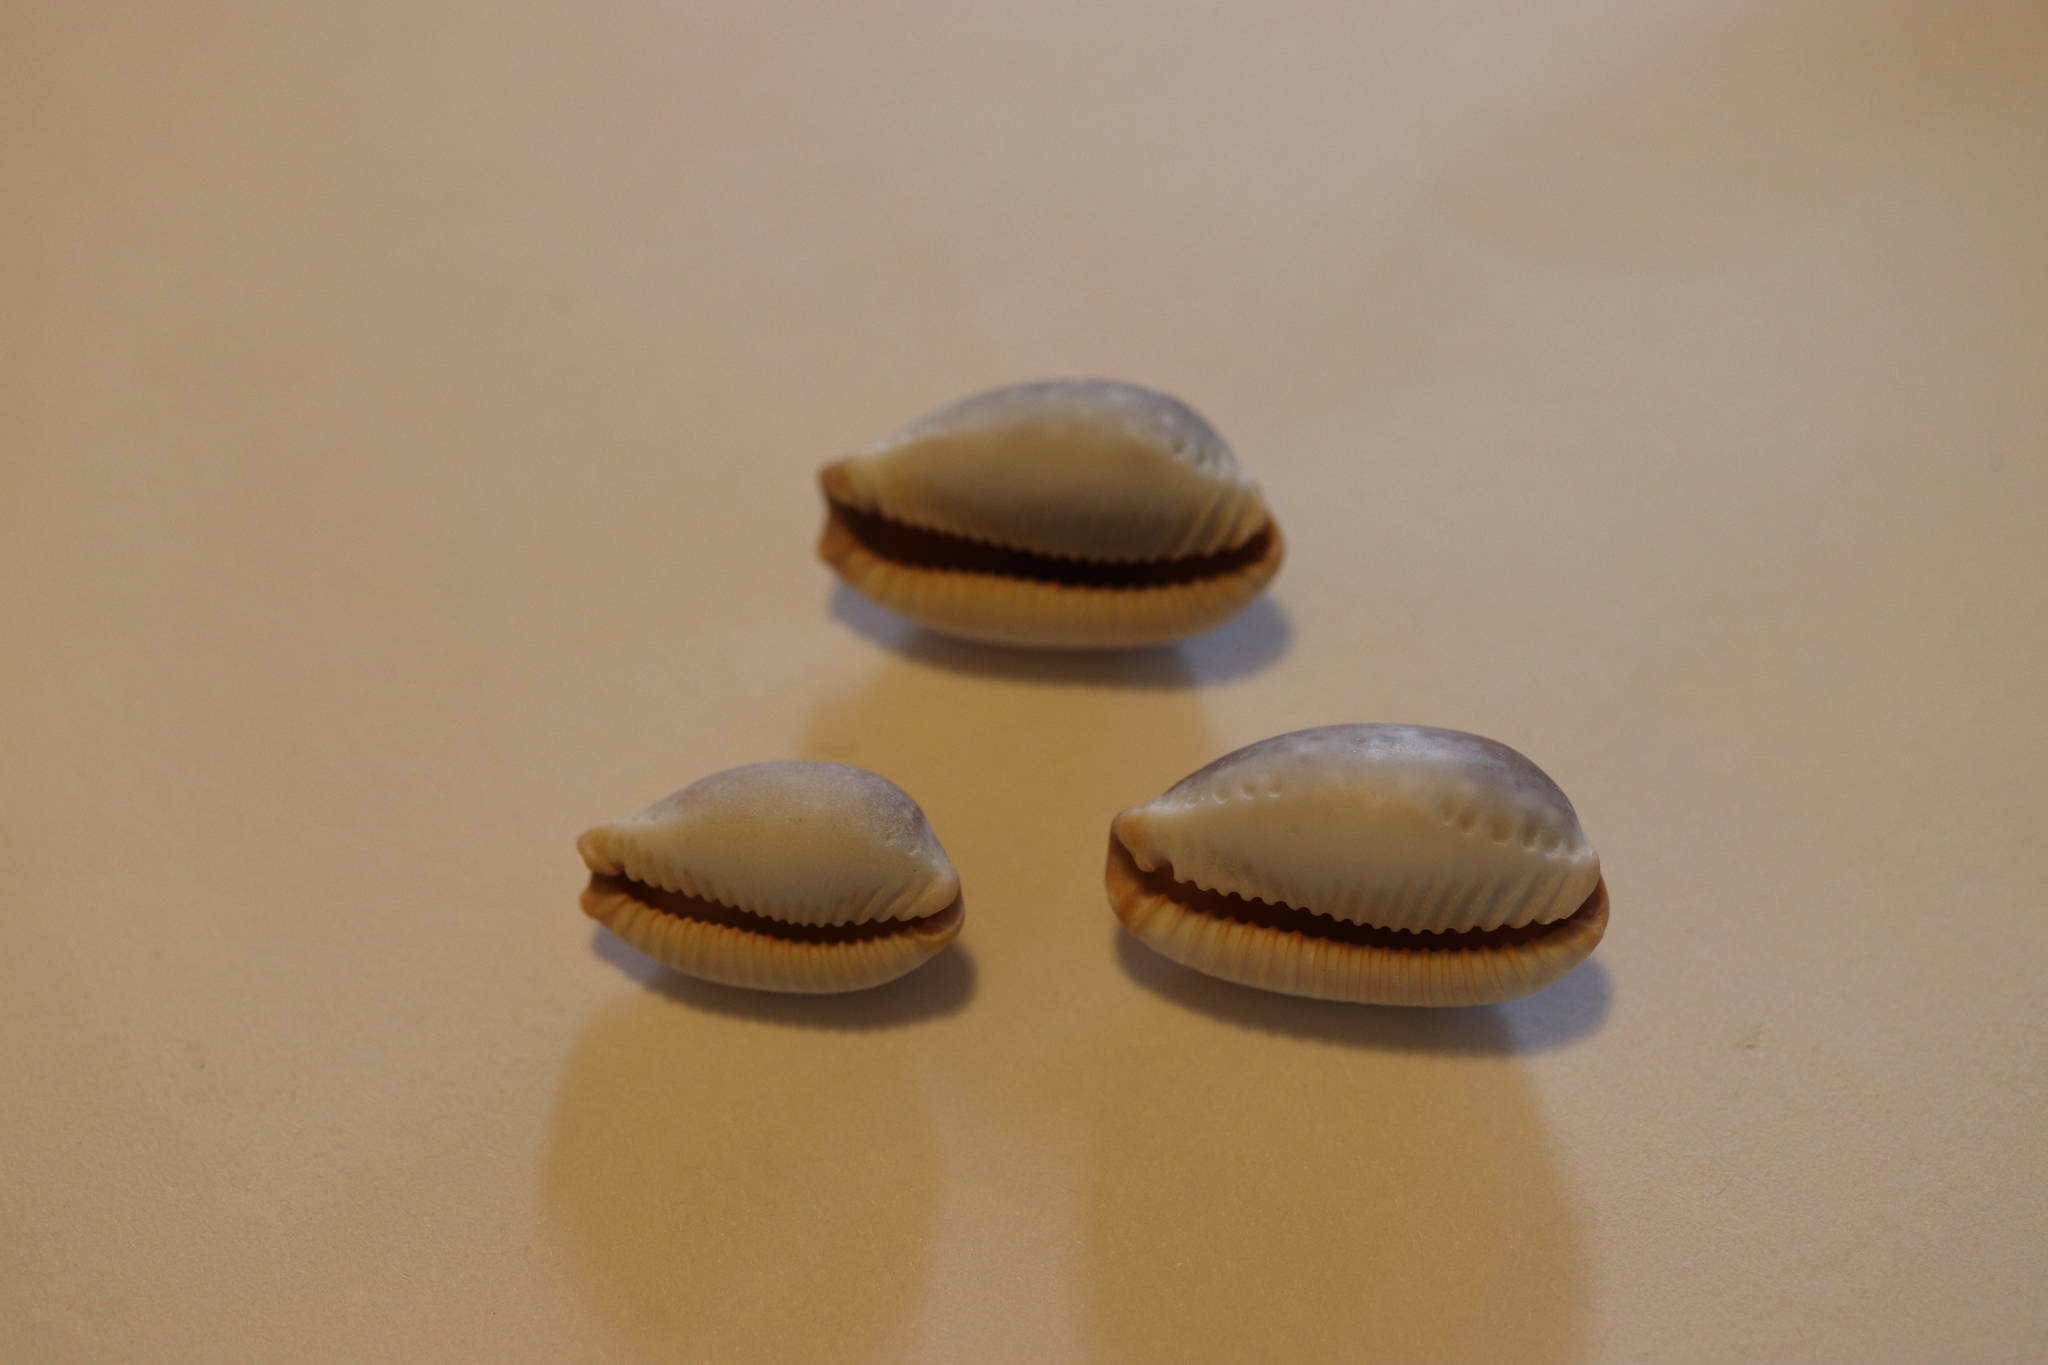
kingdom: Animalia
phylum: Mollusca
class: Gastropoda
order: Littorinimorpha
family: Cypraeidae
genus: Staphylaea
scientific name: Staphylaea limacina
